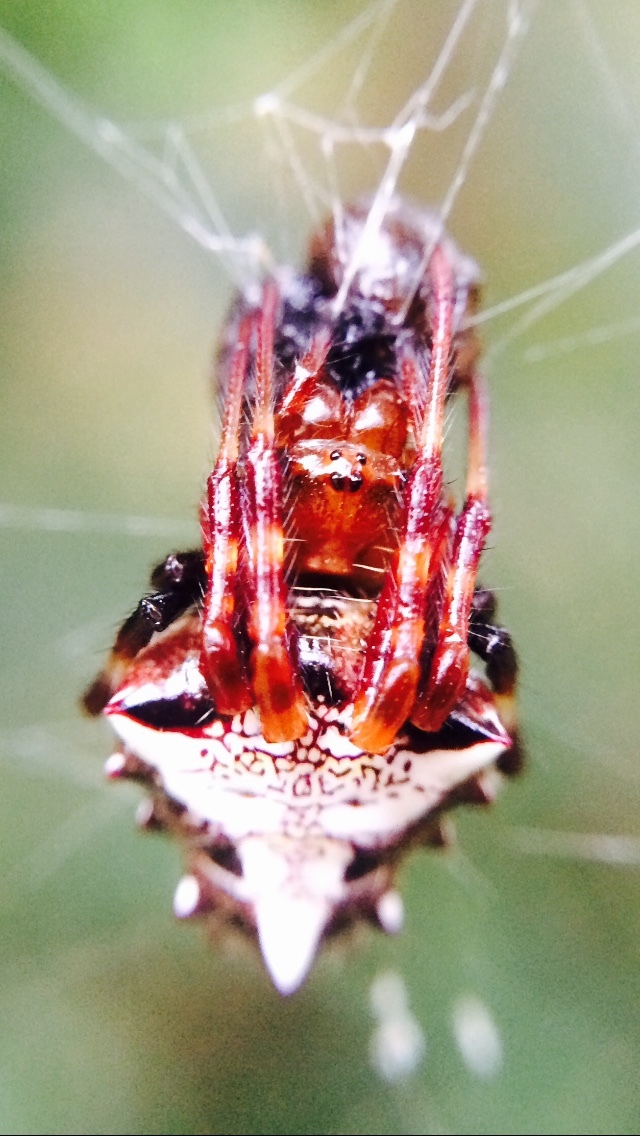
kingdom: Animalia
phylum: Arthropoda
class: Arachnida
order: Araneae
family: Araneidae
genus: Verrucosa
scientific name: Verrucosa arenata
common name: Orb weavers
